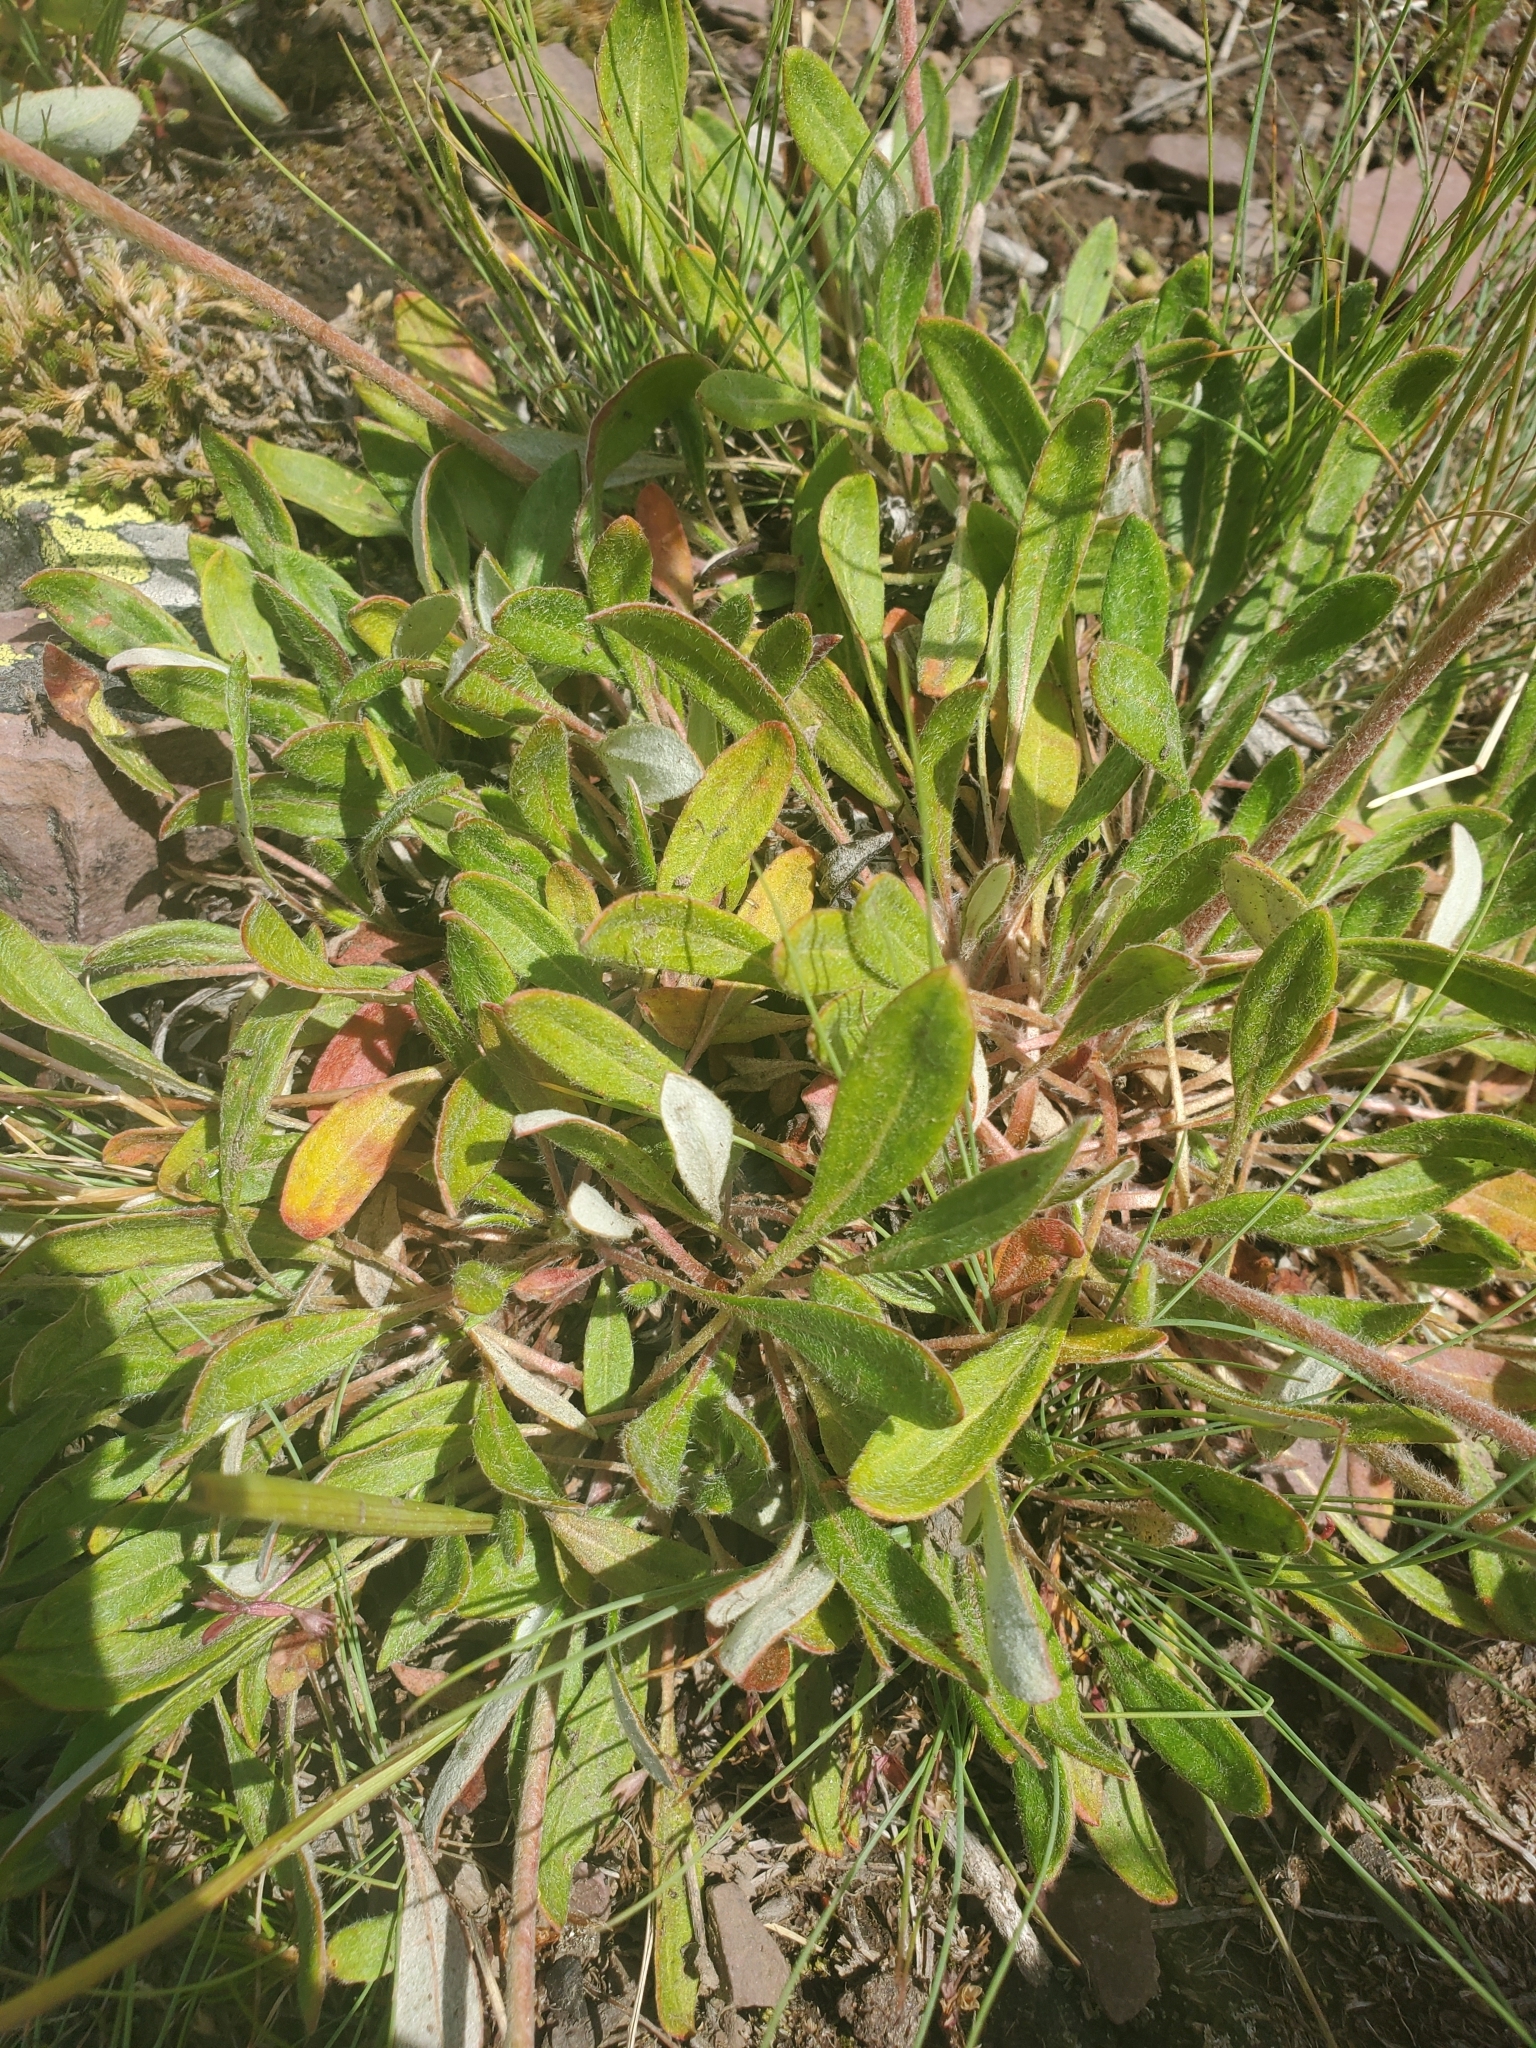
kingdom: Plantae
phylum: Tracheophyta
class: Magnoliopsida
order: Caryophyllales
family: Polygonaceae
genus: Eriogonum
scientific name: Eriogonum flavum
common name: Alpine golden wild buckwheat
